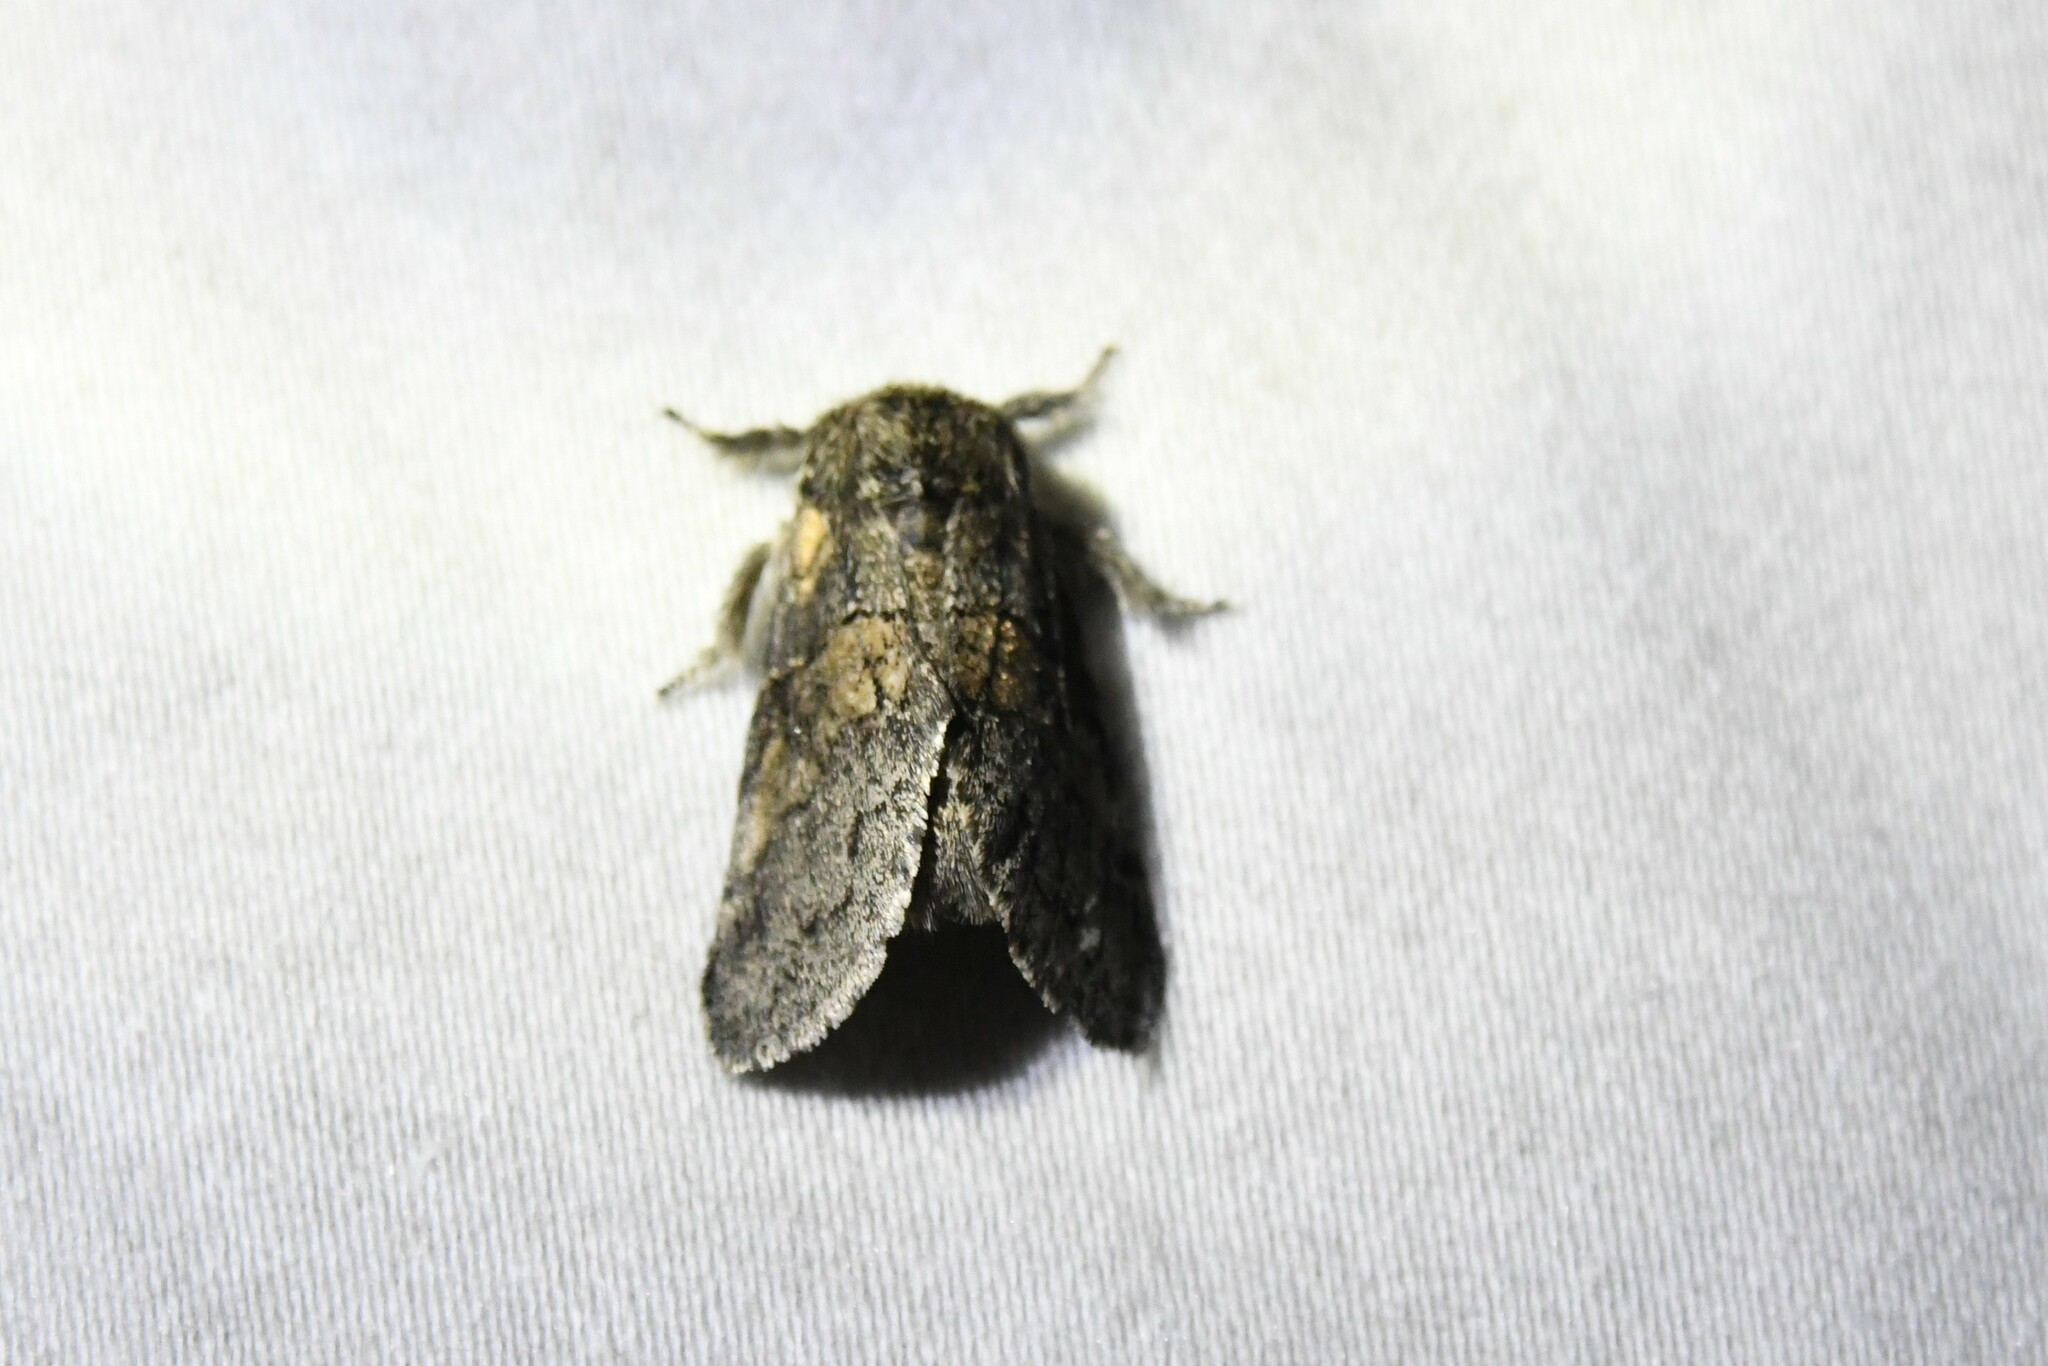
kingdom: Animalia
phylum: Arthropoda
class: Insecta
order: Lepidoptera
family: Notodontidae
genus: Gluphisia
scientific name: Gluphisia septentrionis
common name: Common gluphisia
